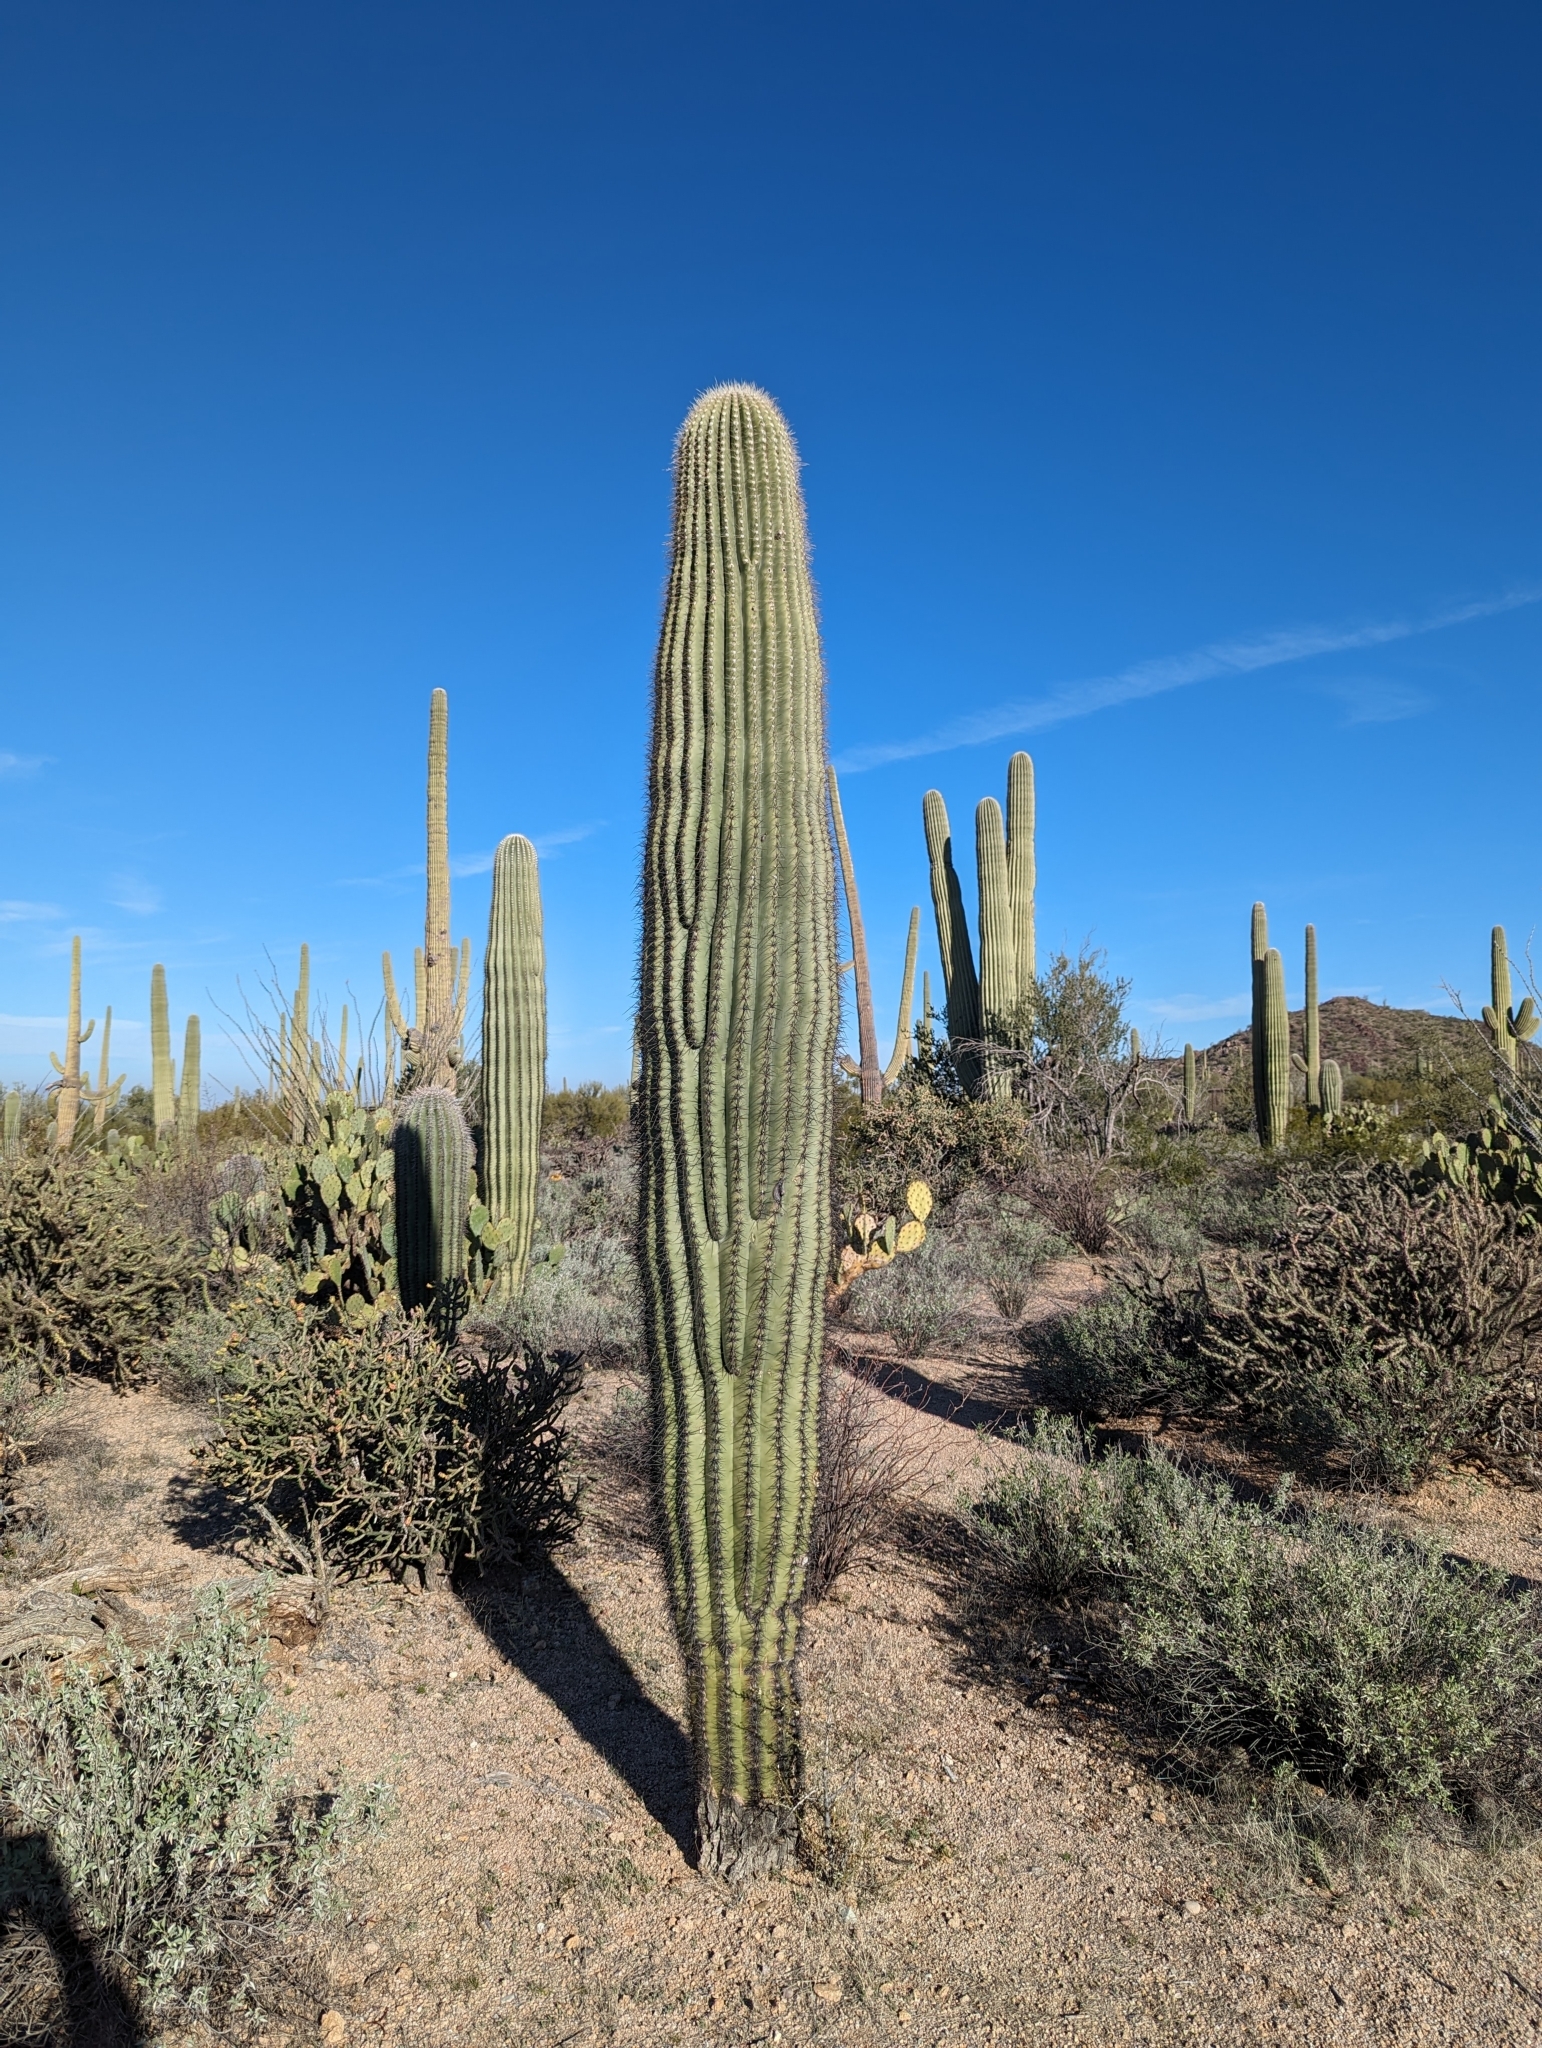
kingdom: Plantae
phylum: Tracheophyta
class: Magnoliopsida
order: Caryophyllales
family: Cactaceae
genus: Carnegiea
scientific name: Carnegiea gigantea
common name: Saguaro
